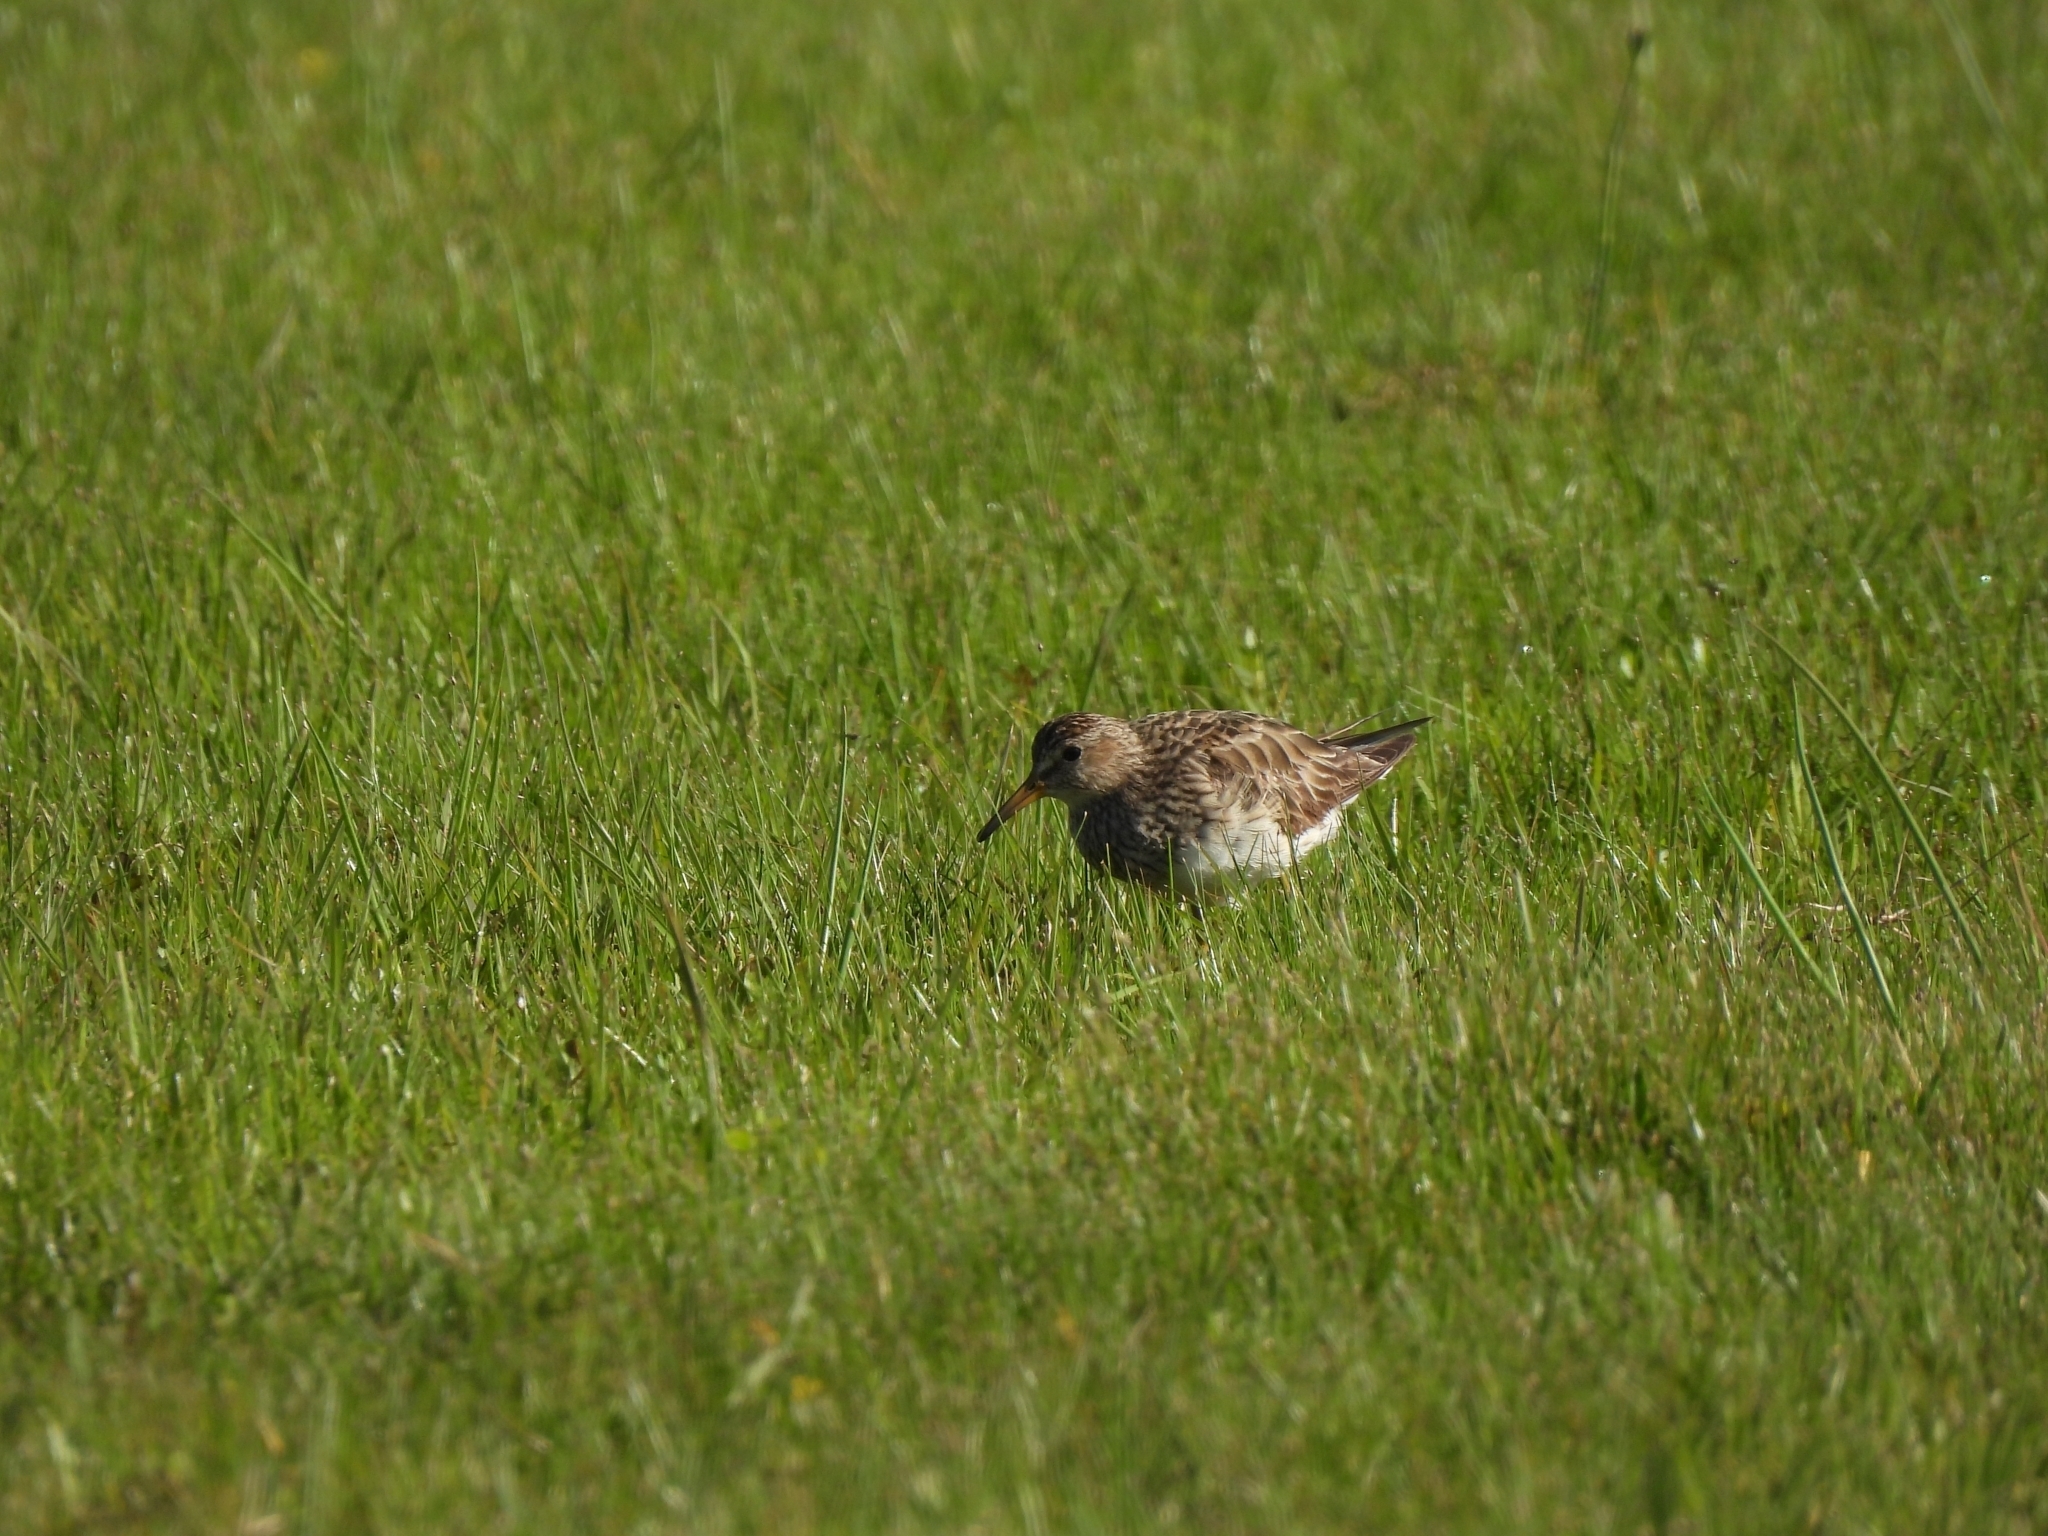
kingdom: Animalia
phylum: Chordata
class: Aves
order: Charadriiformes
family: Scolopacidae
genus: Calidris
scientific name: Calidris melanotos
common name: Pectoral sandpiper
